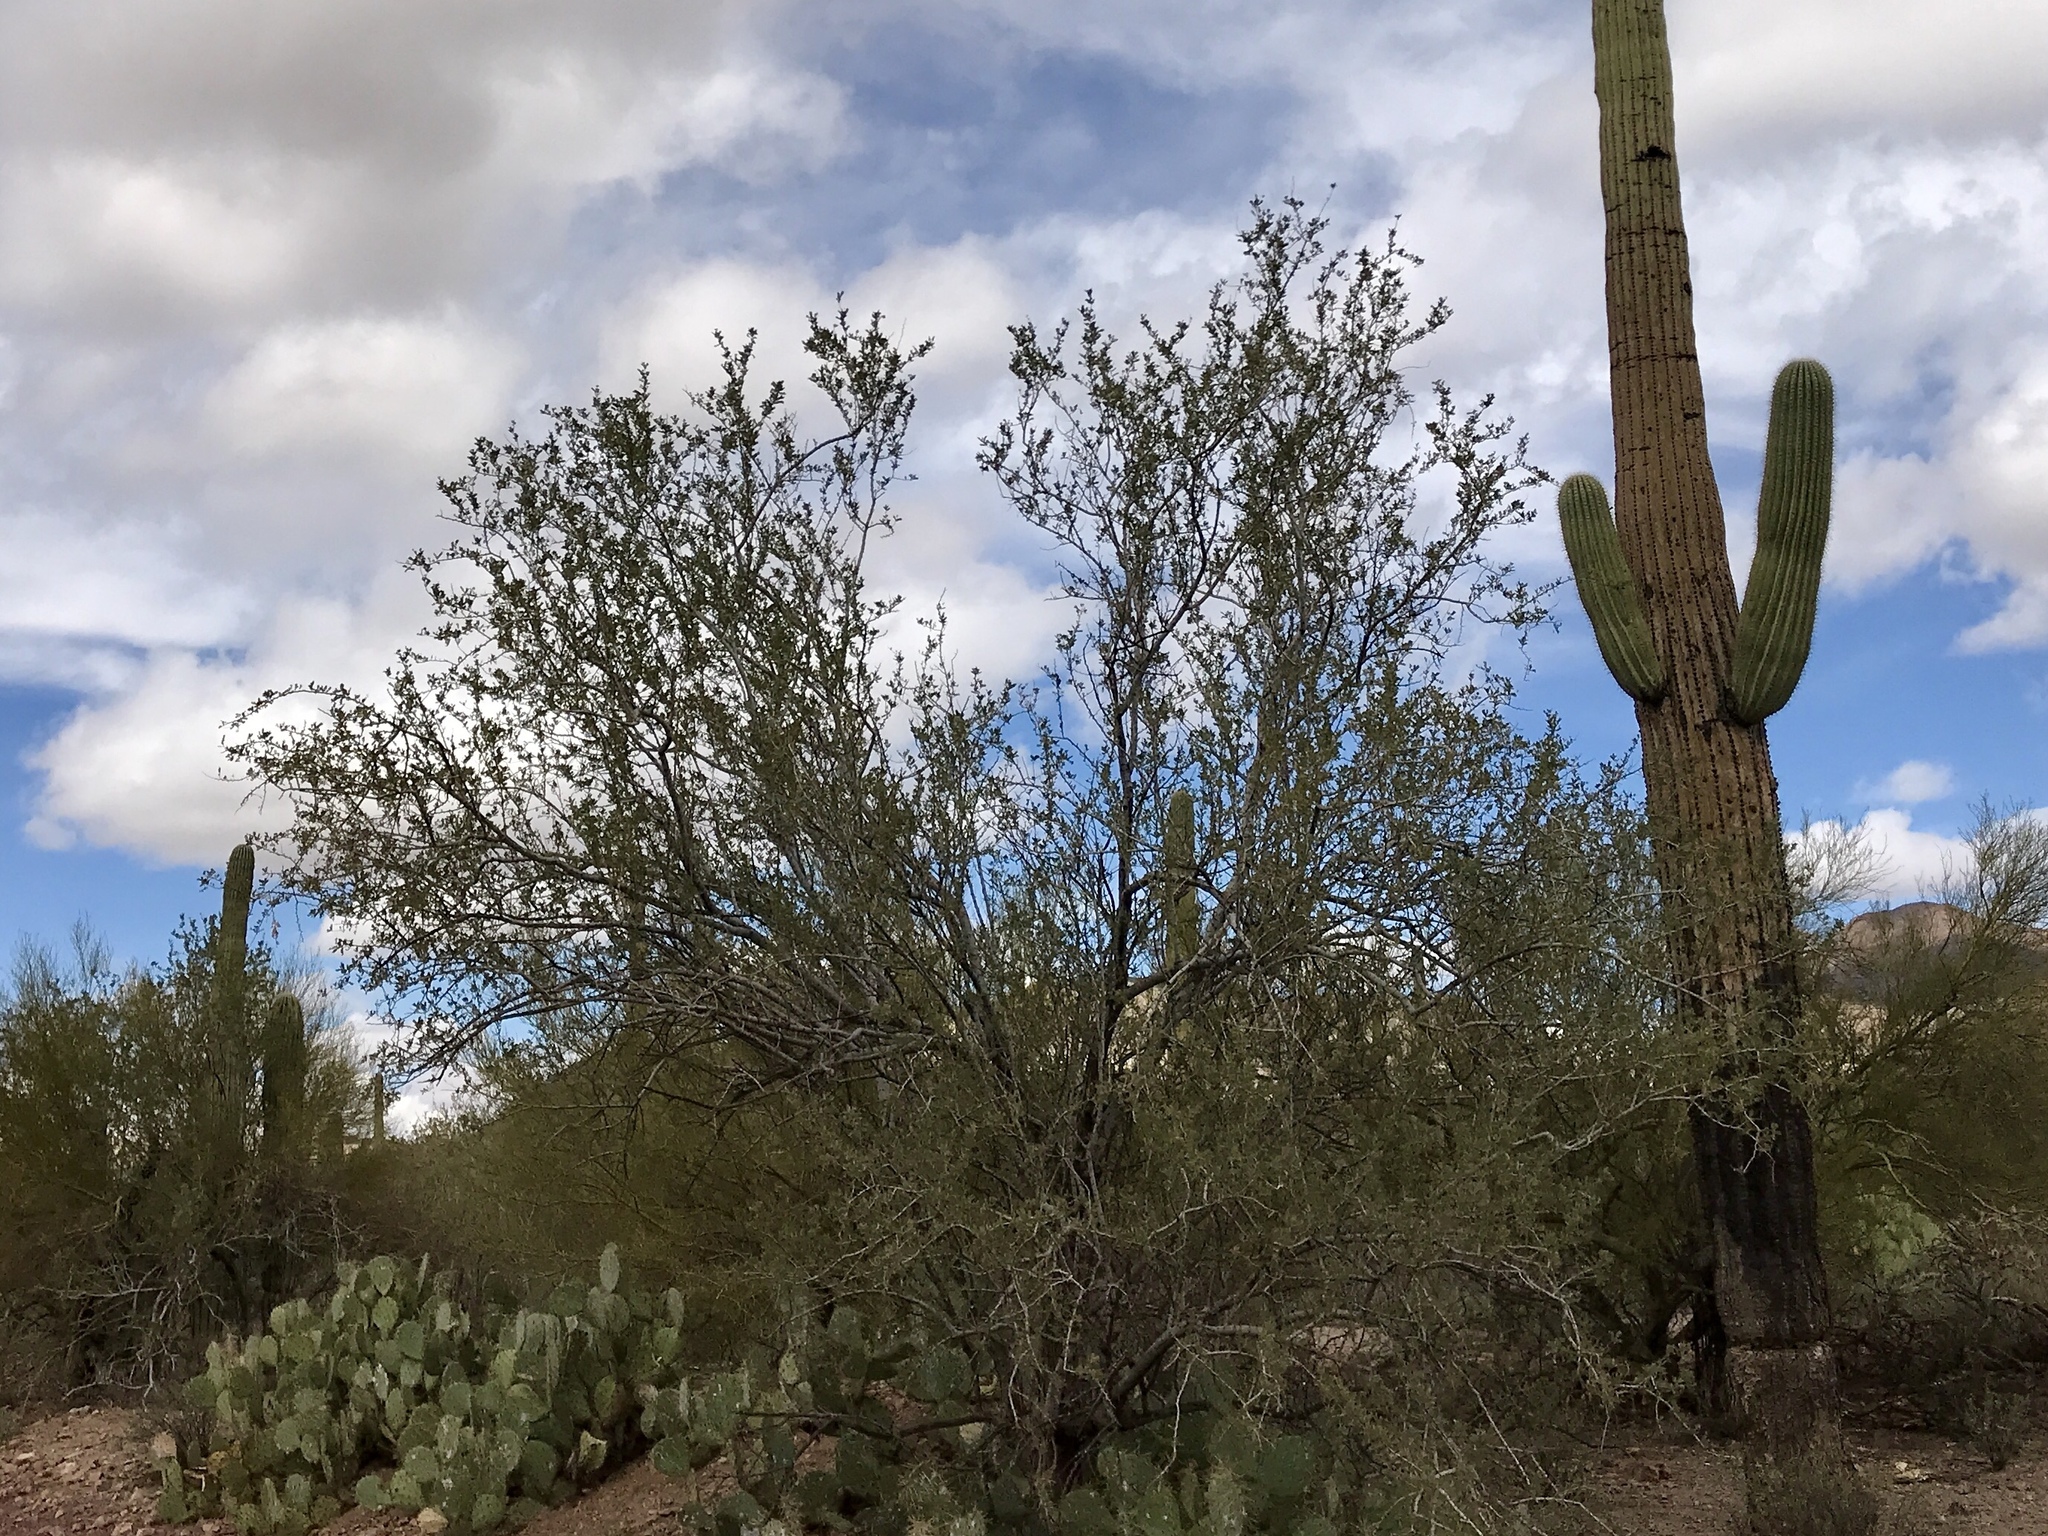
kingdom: Plantae
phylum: Tracheophyta
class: Magnoliopsida
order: Fabales
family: Fabaceae
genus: Olneya
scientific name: Olneya tesota
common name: Desert ironwood
